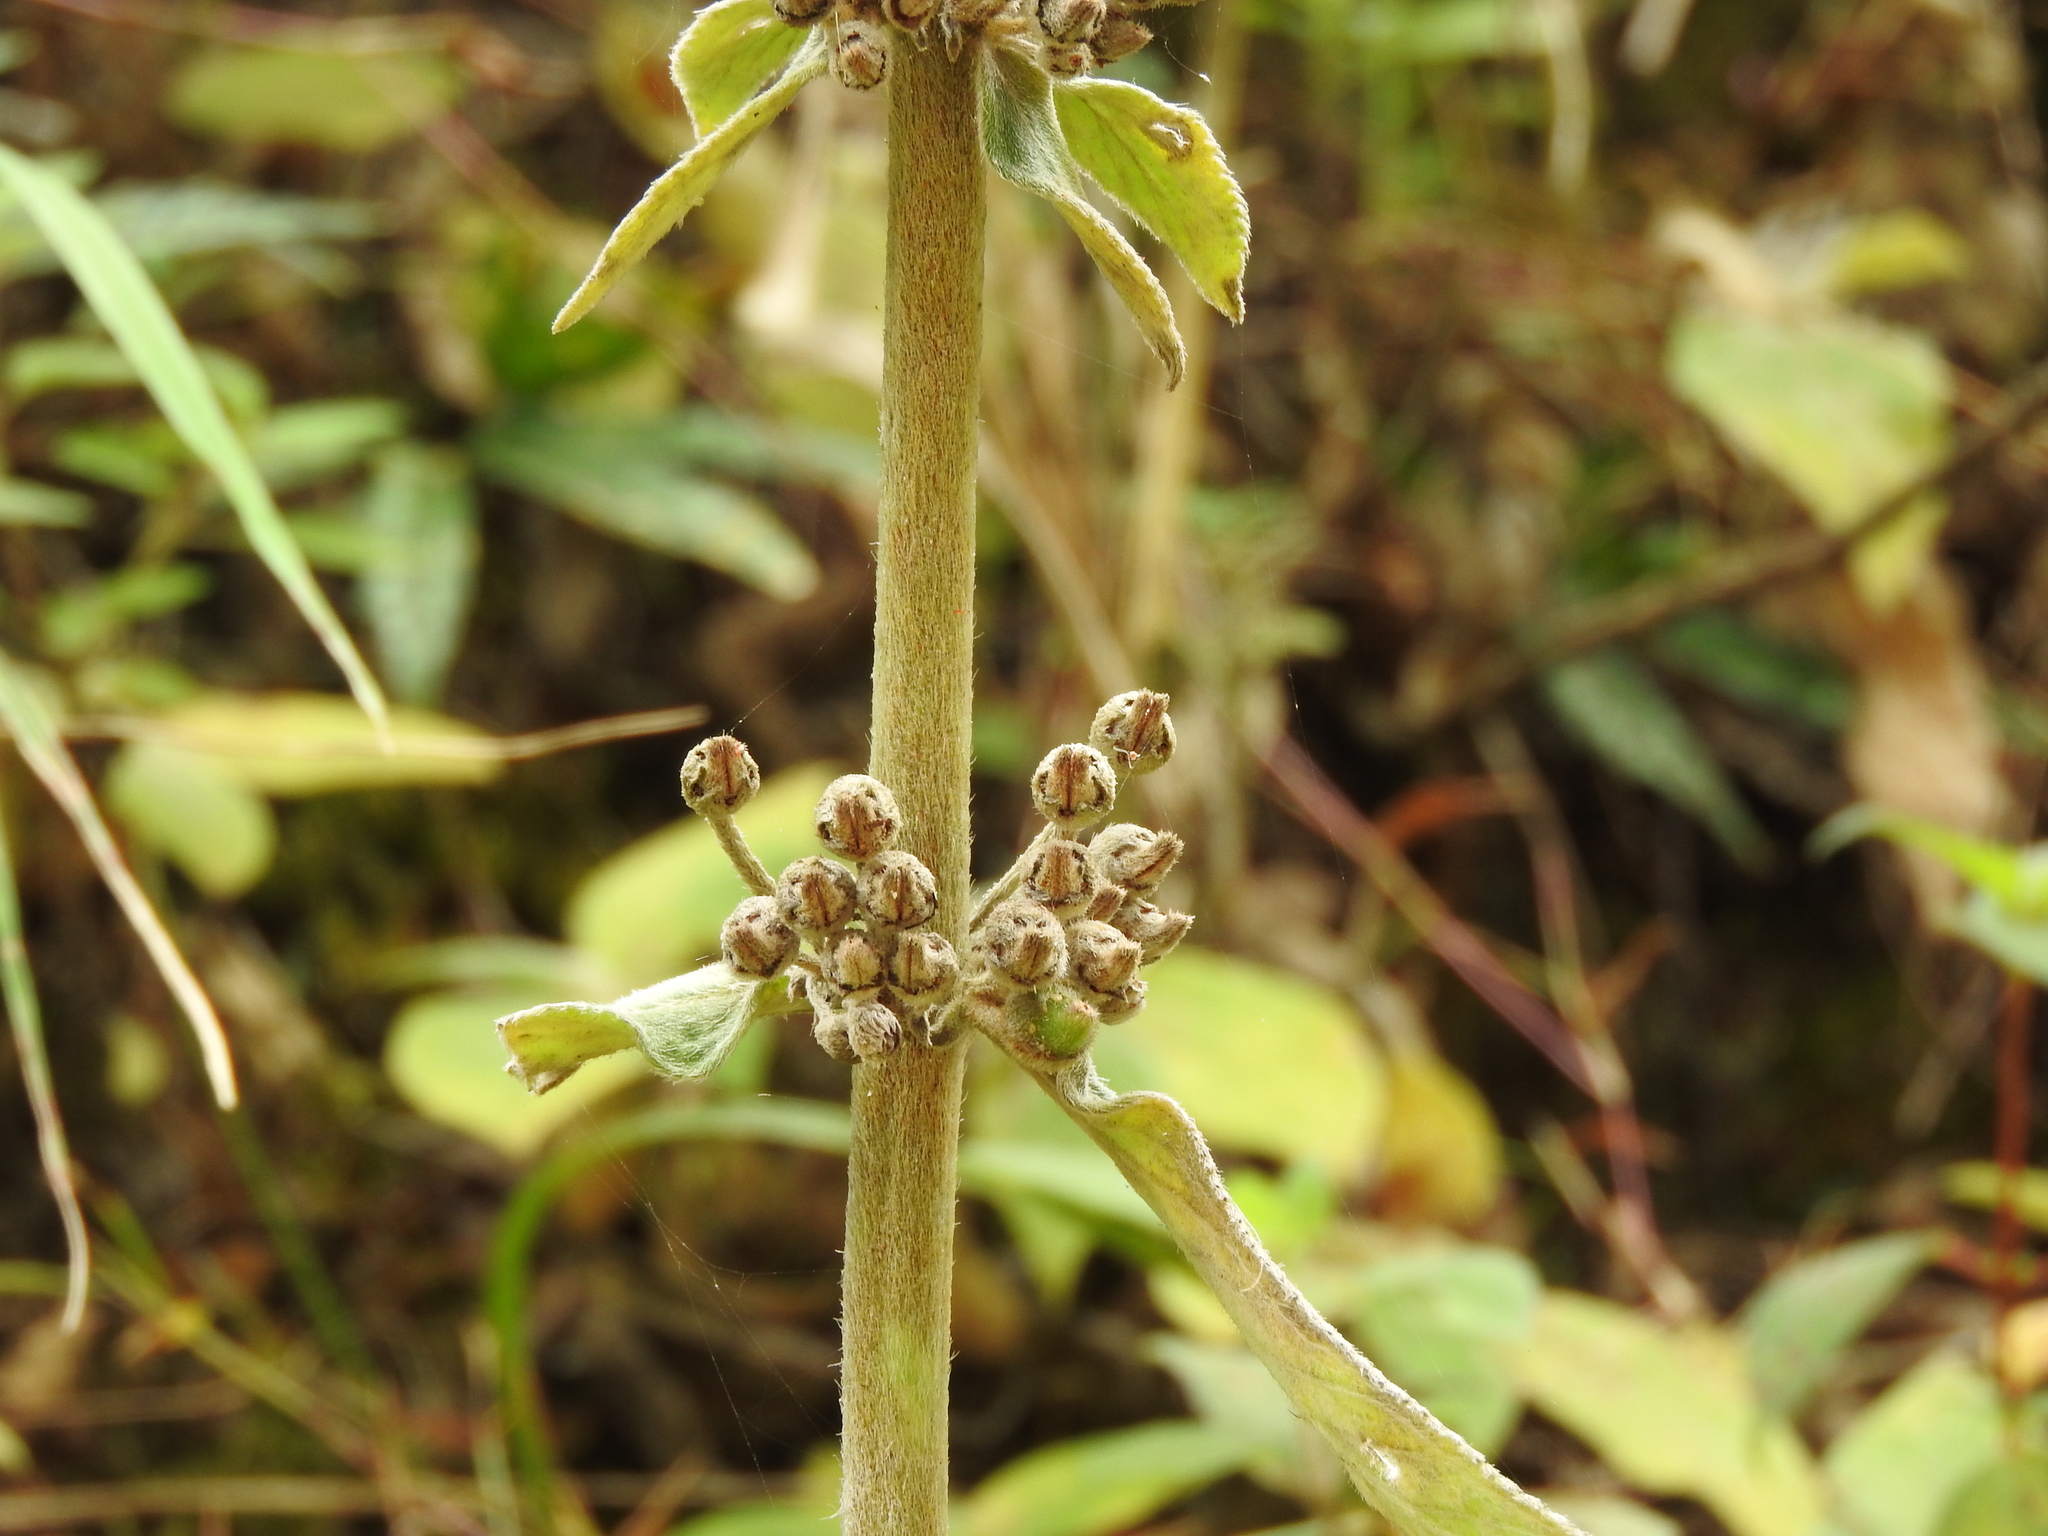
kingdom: Plantae
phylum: Tracheophyta
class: Magnoliopsida
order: Lamiales
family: Gesneriaceae
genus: Kohleria
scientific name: Kohleria spicata
